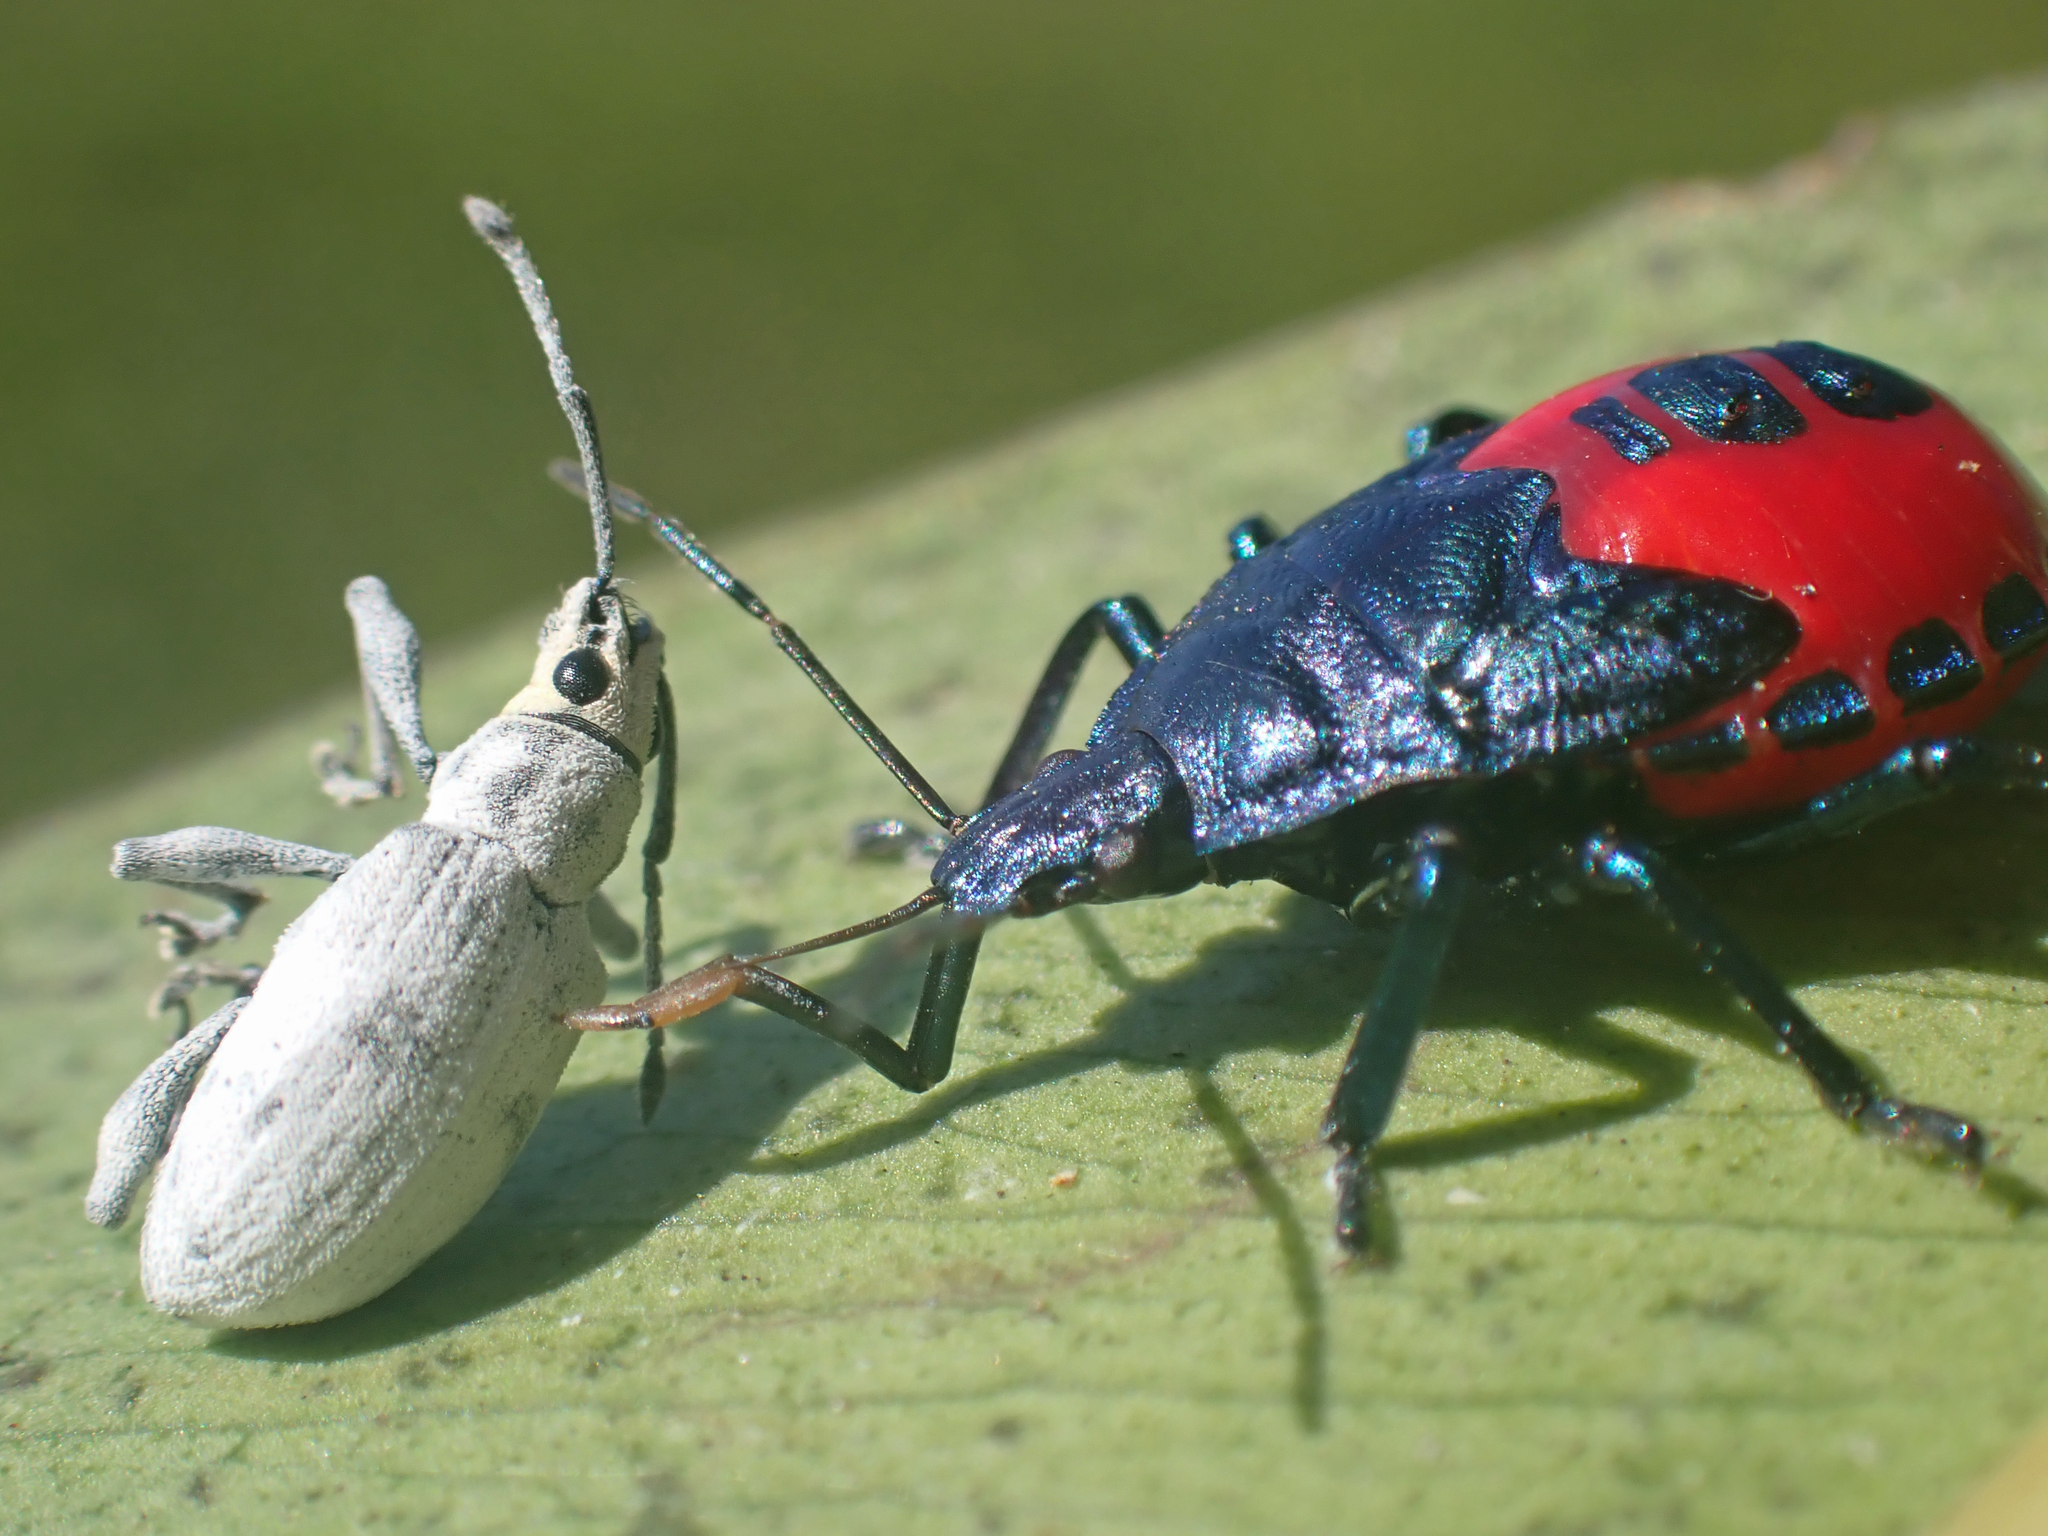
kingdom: Animalia
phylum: Arthropoda
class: Insecta
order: Hemiptera
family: Pentatomidae
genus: Euthyrhynchus
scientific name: Euthyrhynchus floridanus
